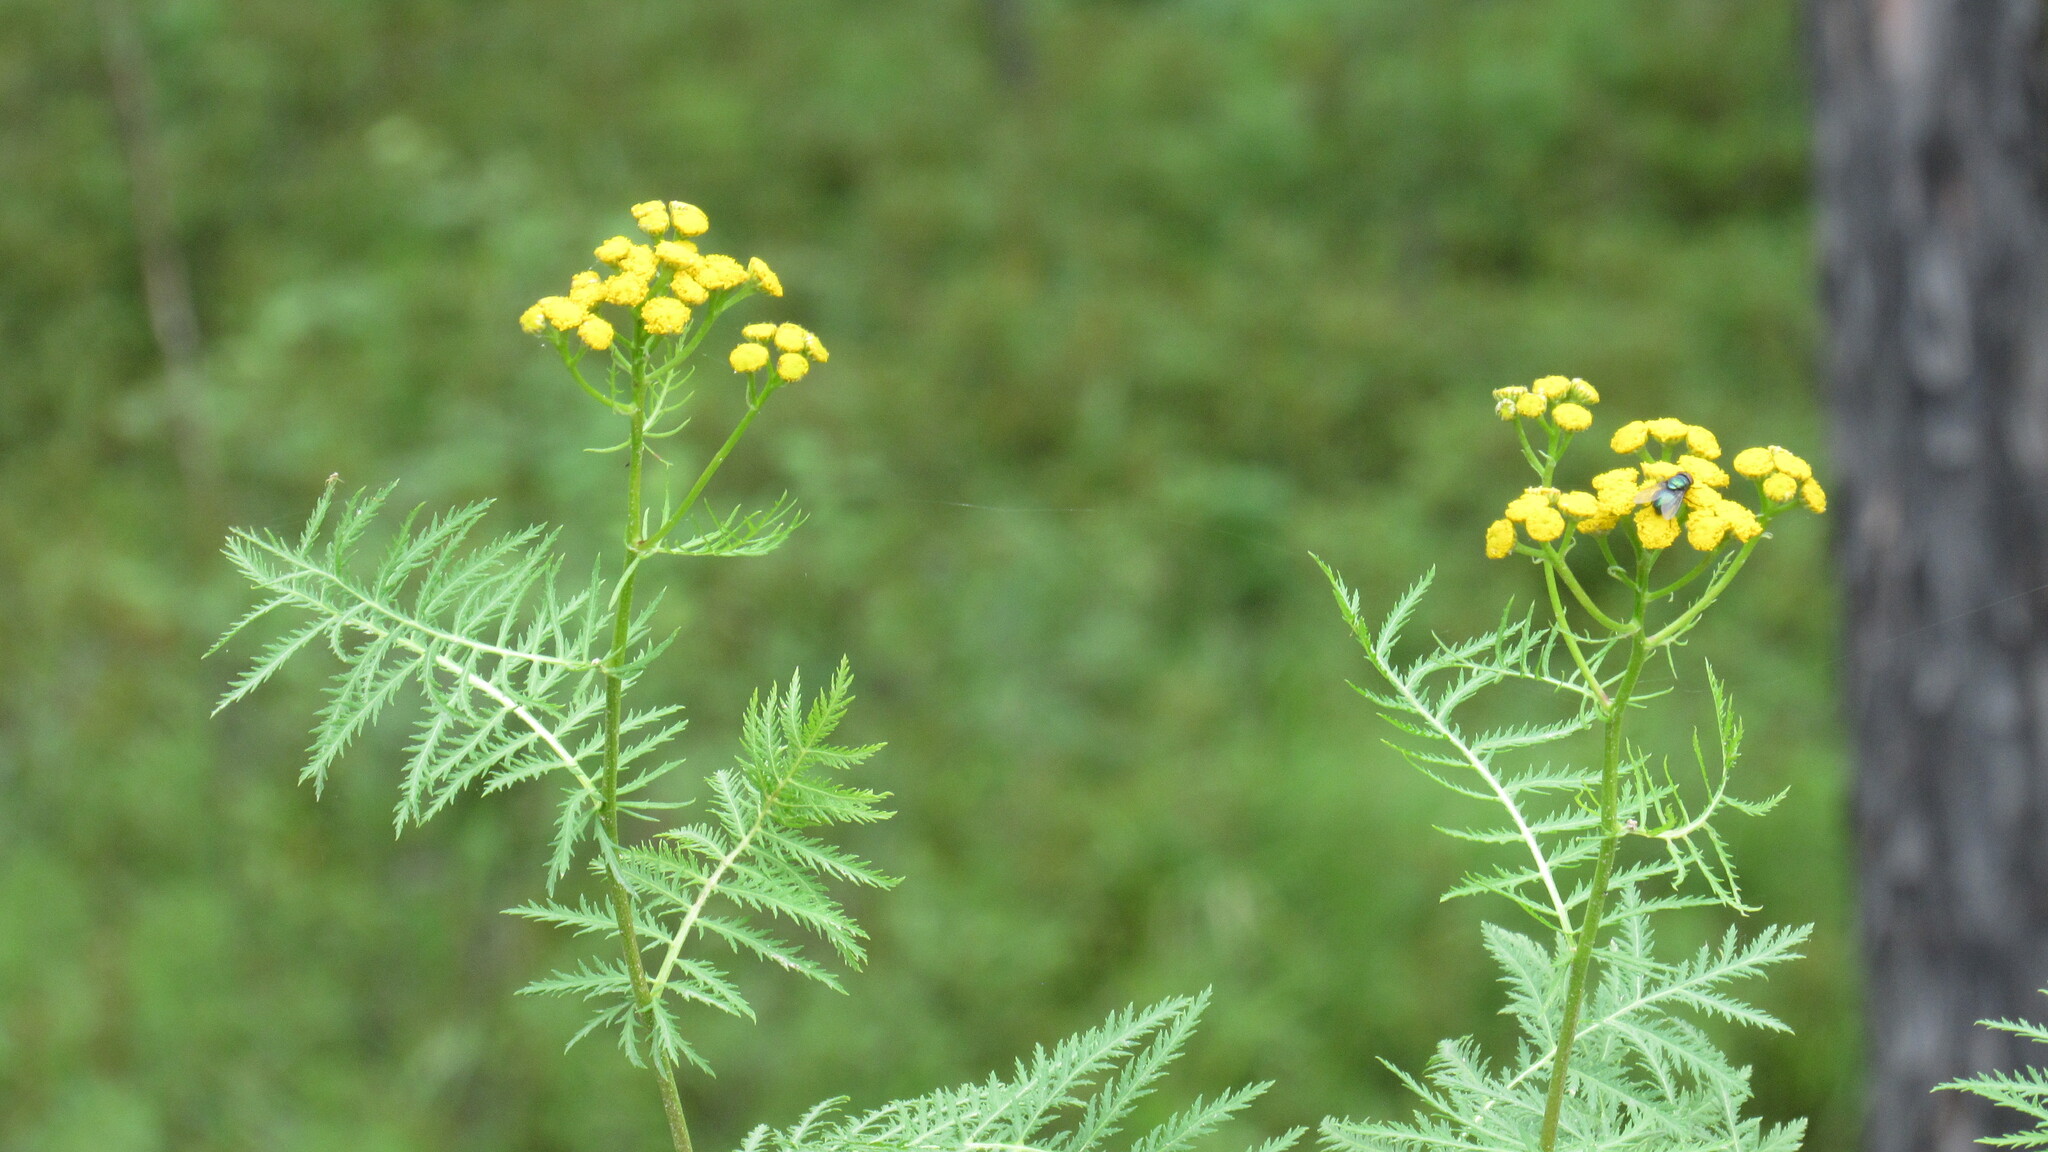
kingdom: Plantae
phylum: Tracheophyta
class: Magnoliopsida
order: Asterales
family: Asteraceae
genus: Tanacetum
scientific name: Tanacetum vulgare
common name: Common tansy
